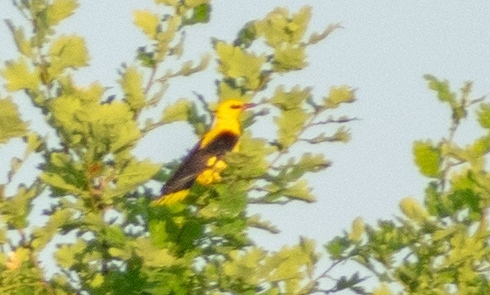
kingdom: Animalia
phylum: Chordata
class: Aves
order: Passeriformes
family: Oriolidae
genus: Oriolus
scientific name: Oriolus oriolus
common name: Eurasian golden oriole
